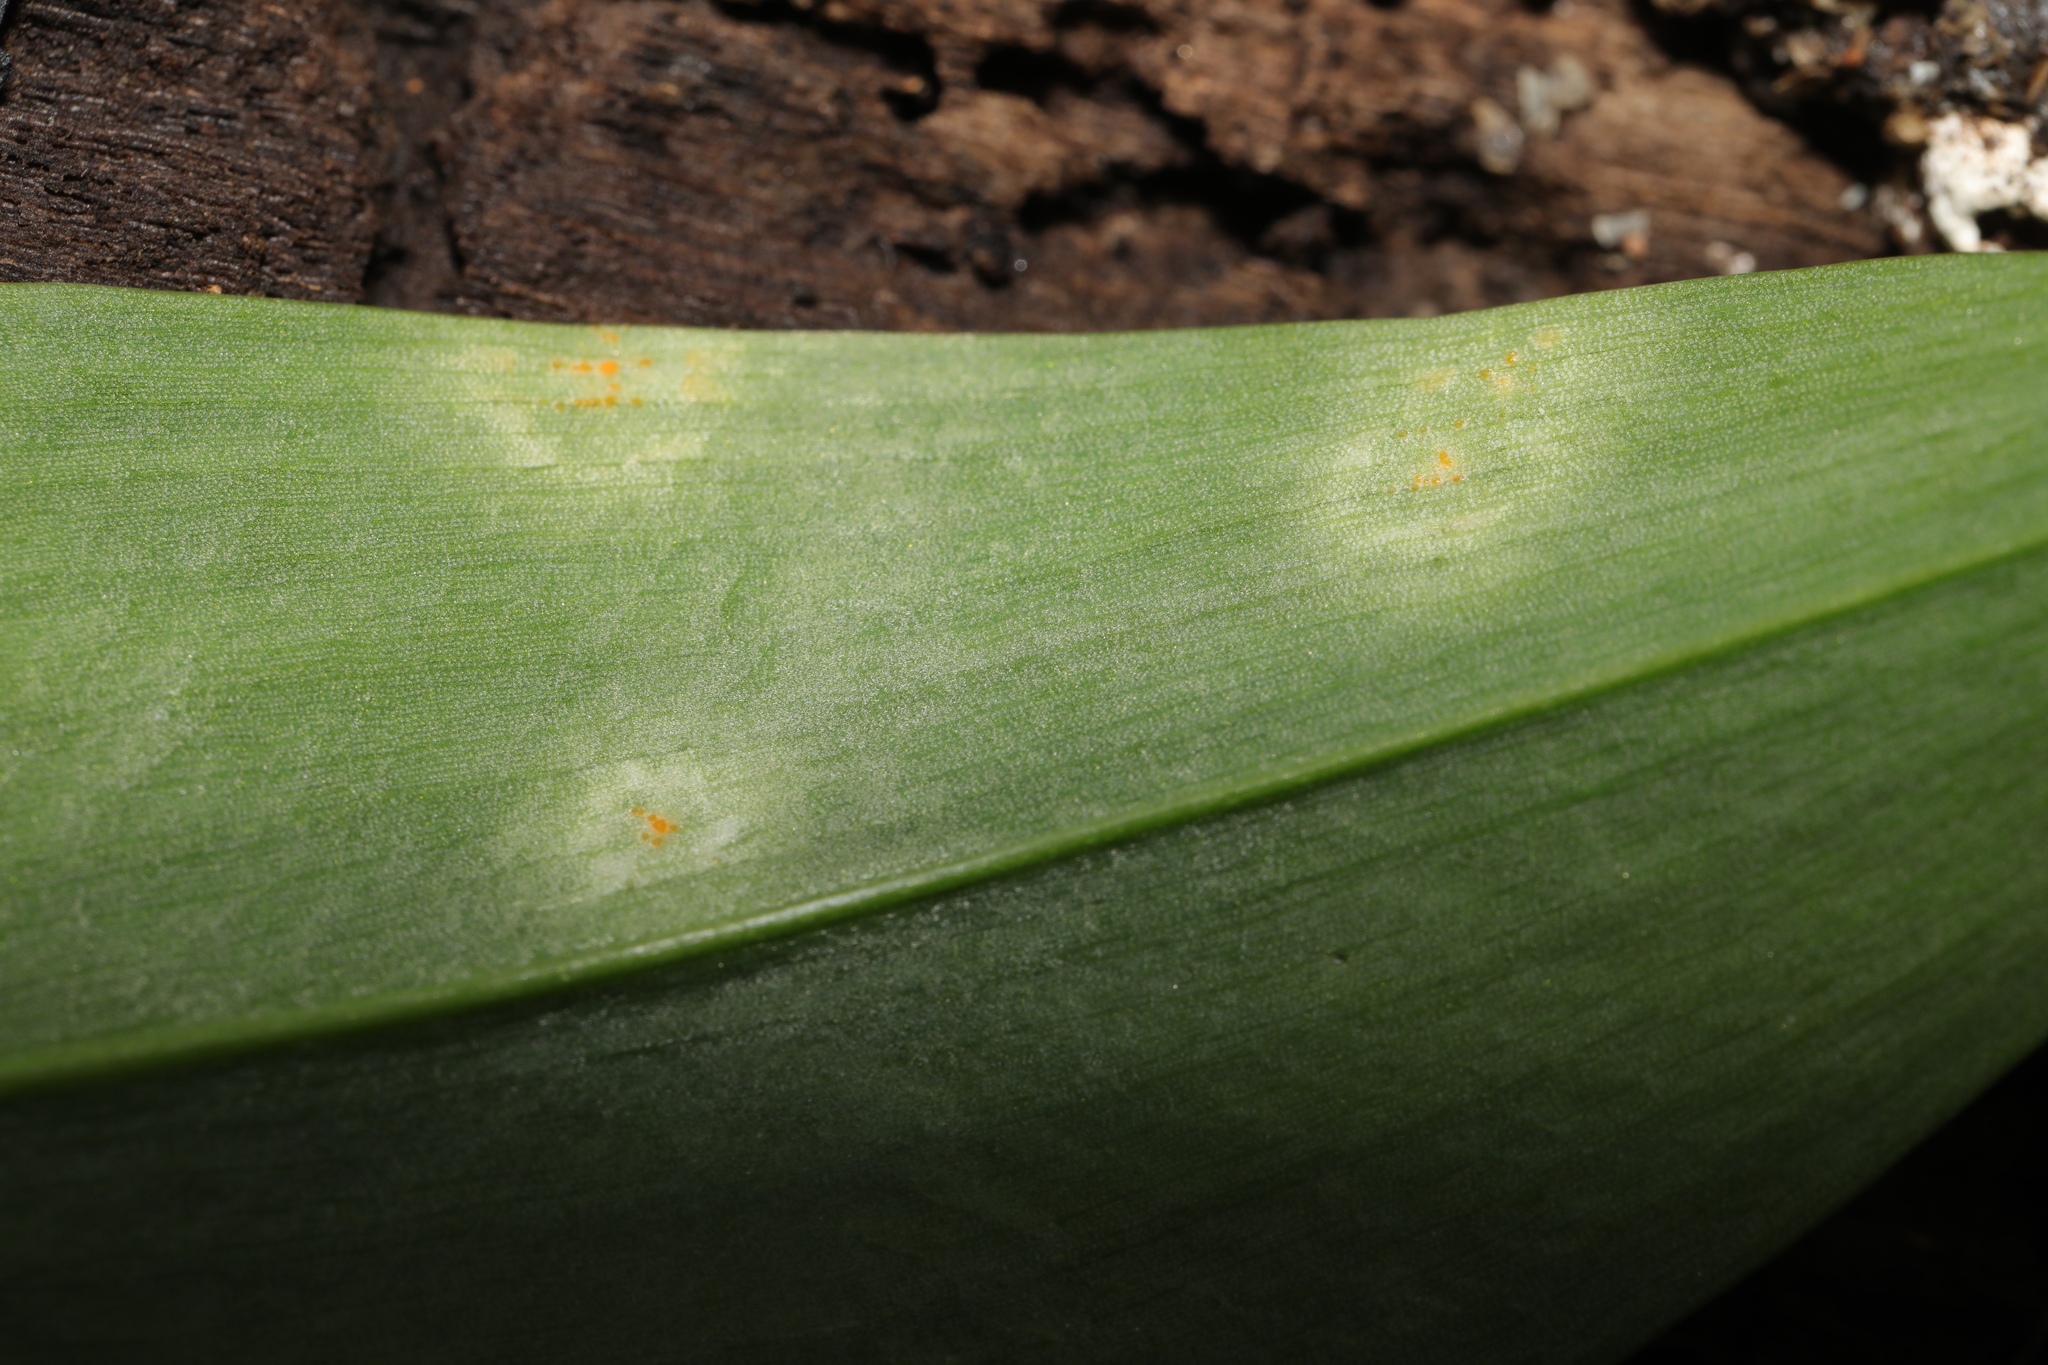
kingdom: Fungi
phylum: Basidiomycota
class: Pucciniomycetes
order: Pucciniales
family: Pucciniaceae
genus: Caeoma
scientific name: Caeoma allii-ursini
